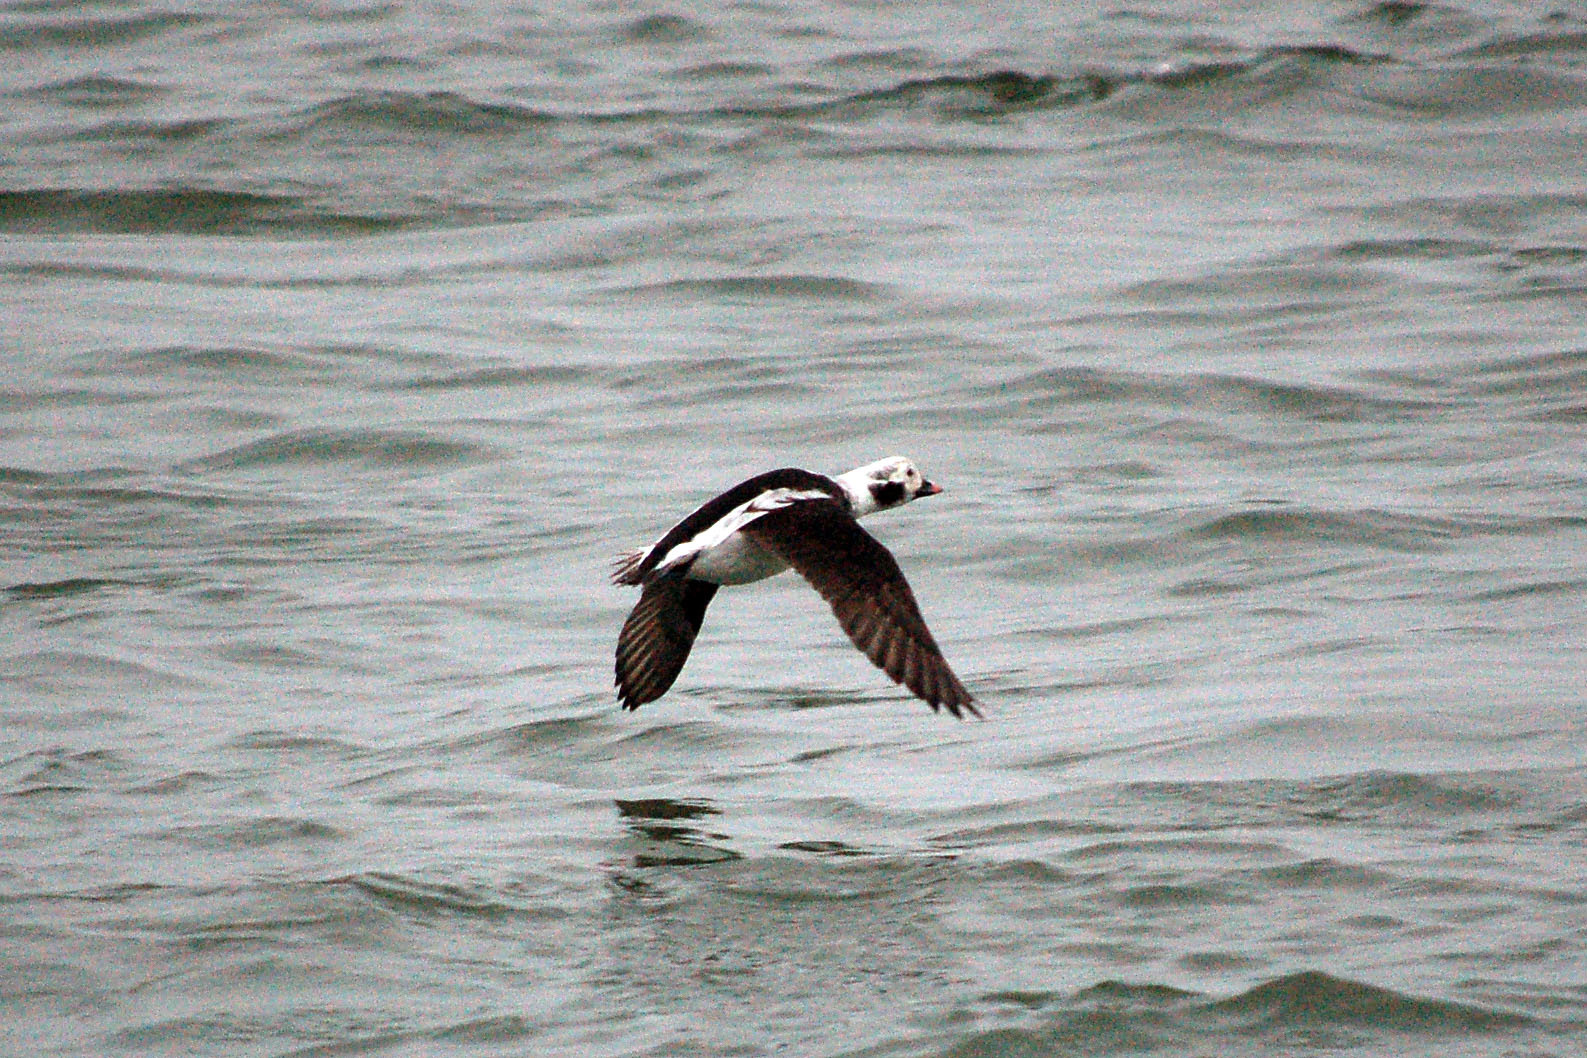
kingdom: Animalia
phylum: Chordata
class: Aves
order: Anseriformes
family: Anatidae
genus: Clangula
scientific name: Clangula hyemalis
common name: Long-tailed duck
